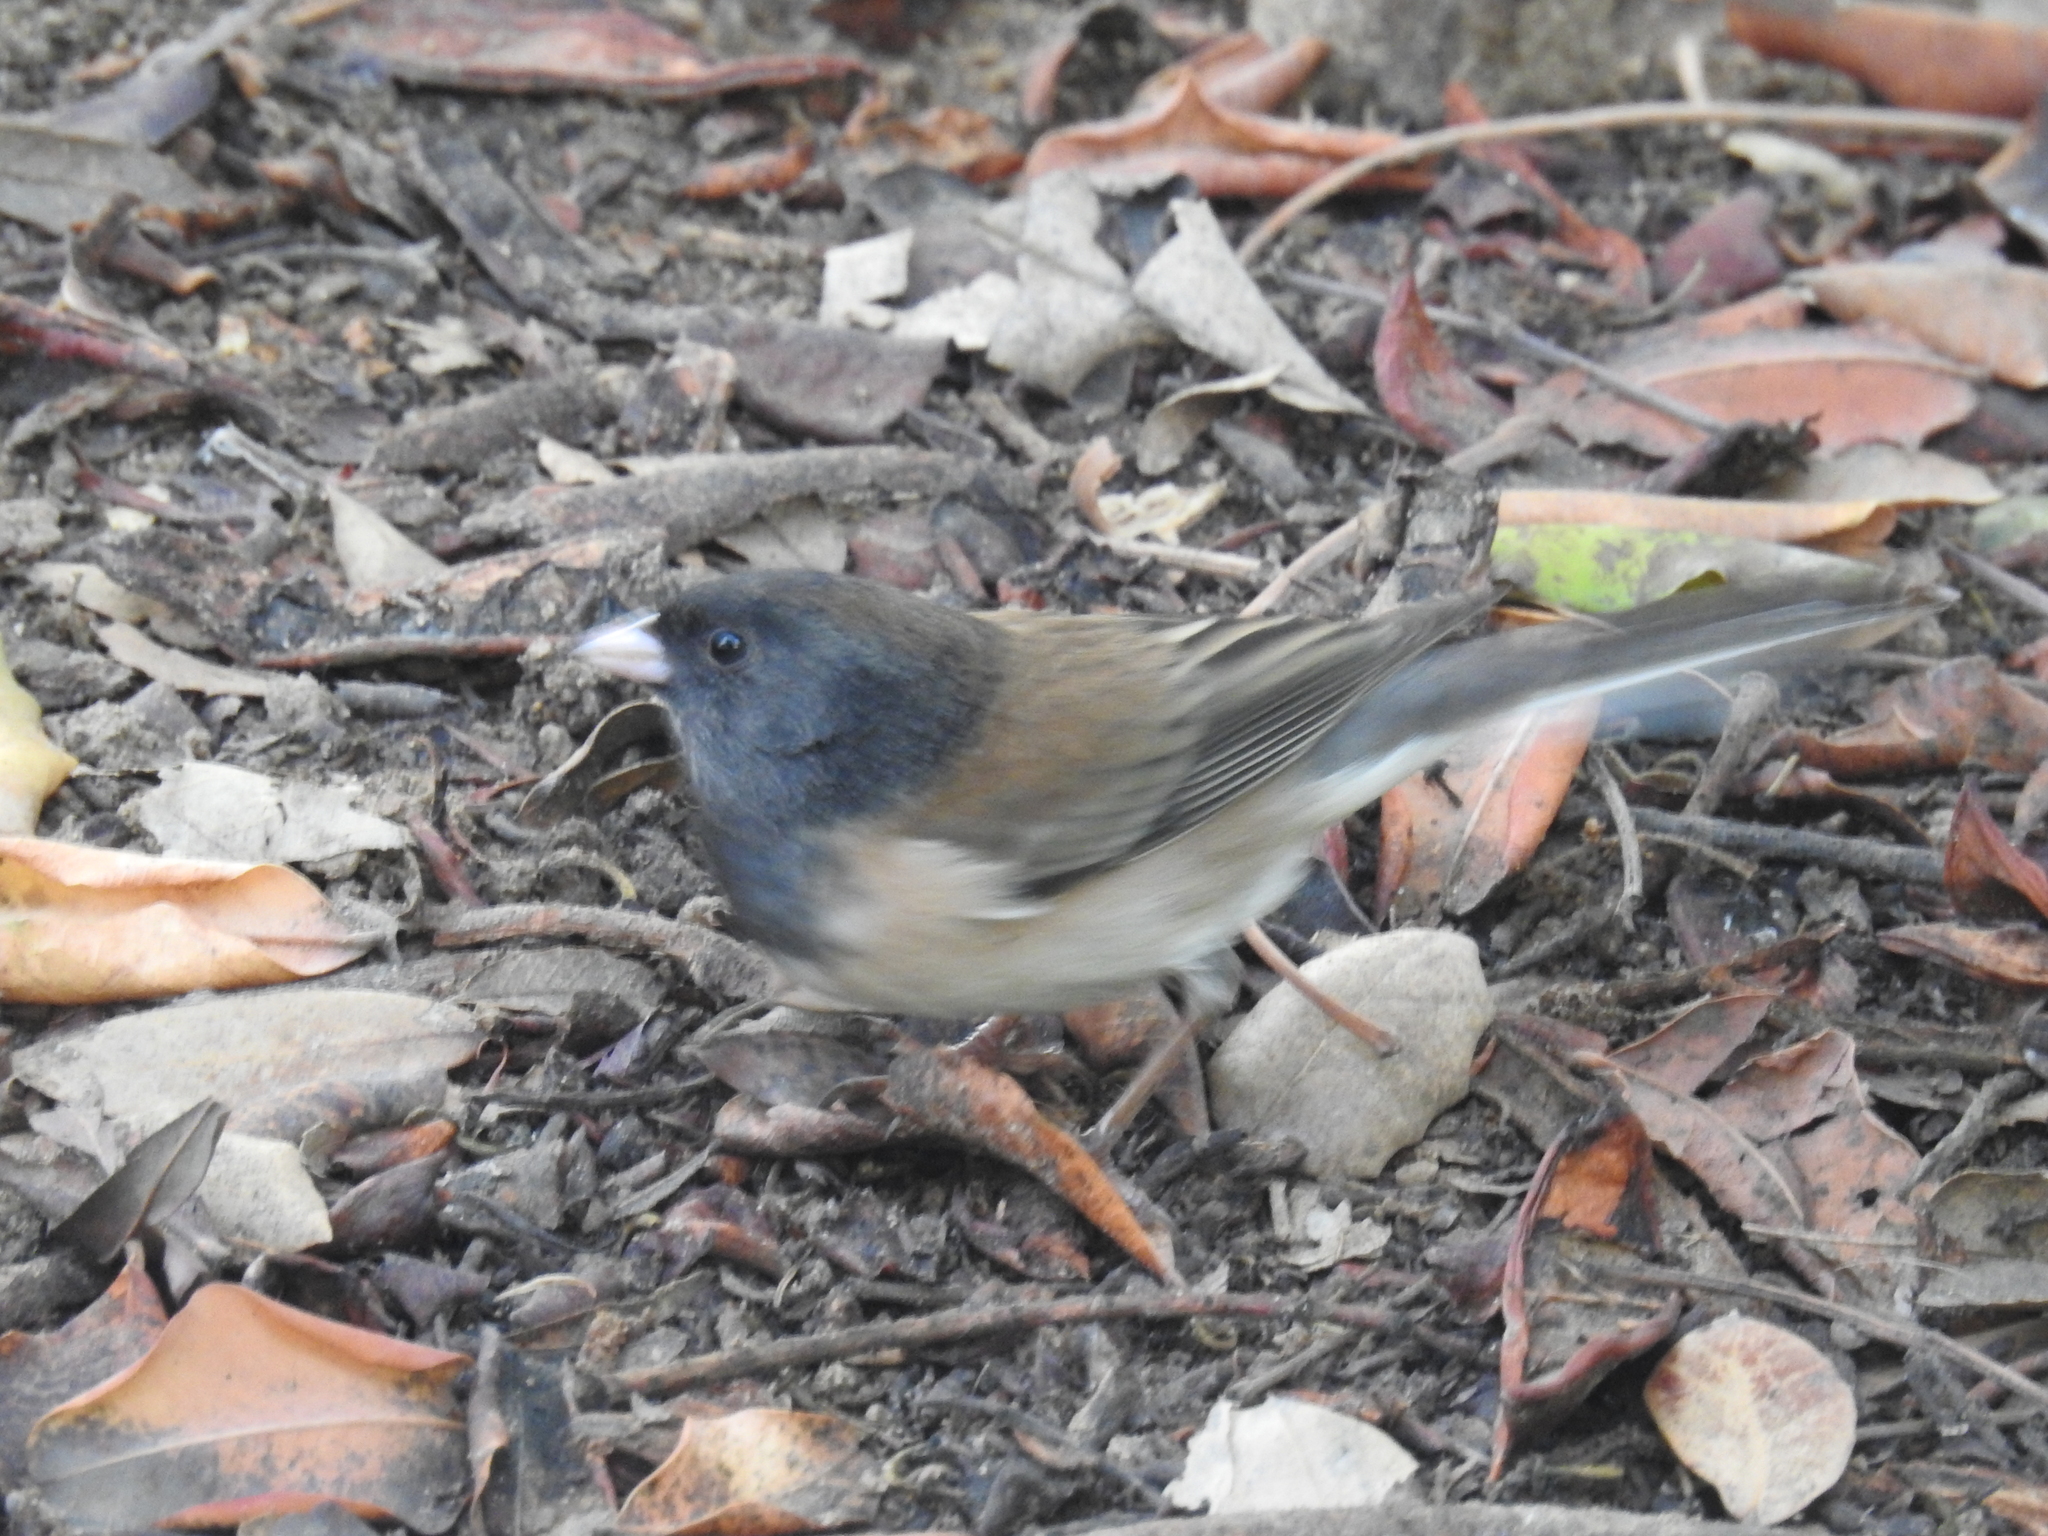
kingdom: Animalia
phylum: Chordata
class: Aves
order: Passeriformes
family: Passerellidae
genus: Junco
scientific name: Junco hyemalis
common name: Dark-eyed junco
